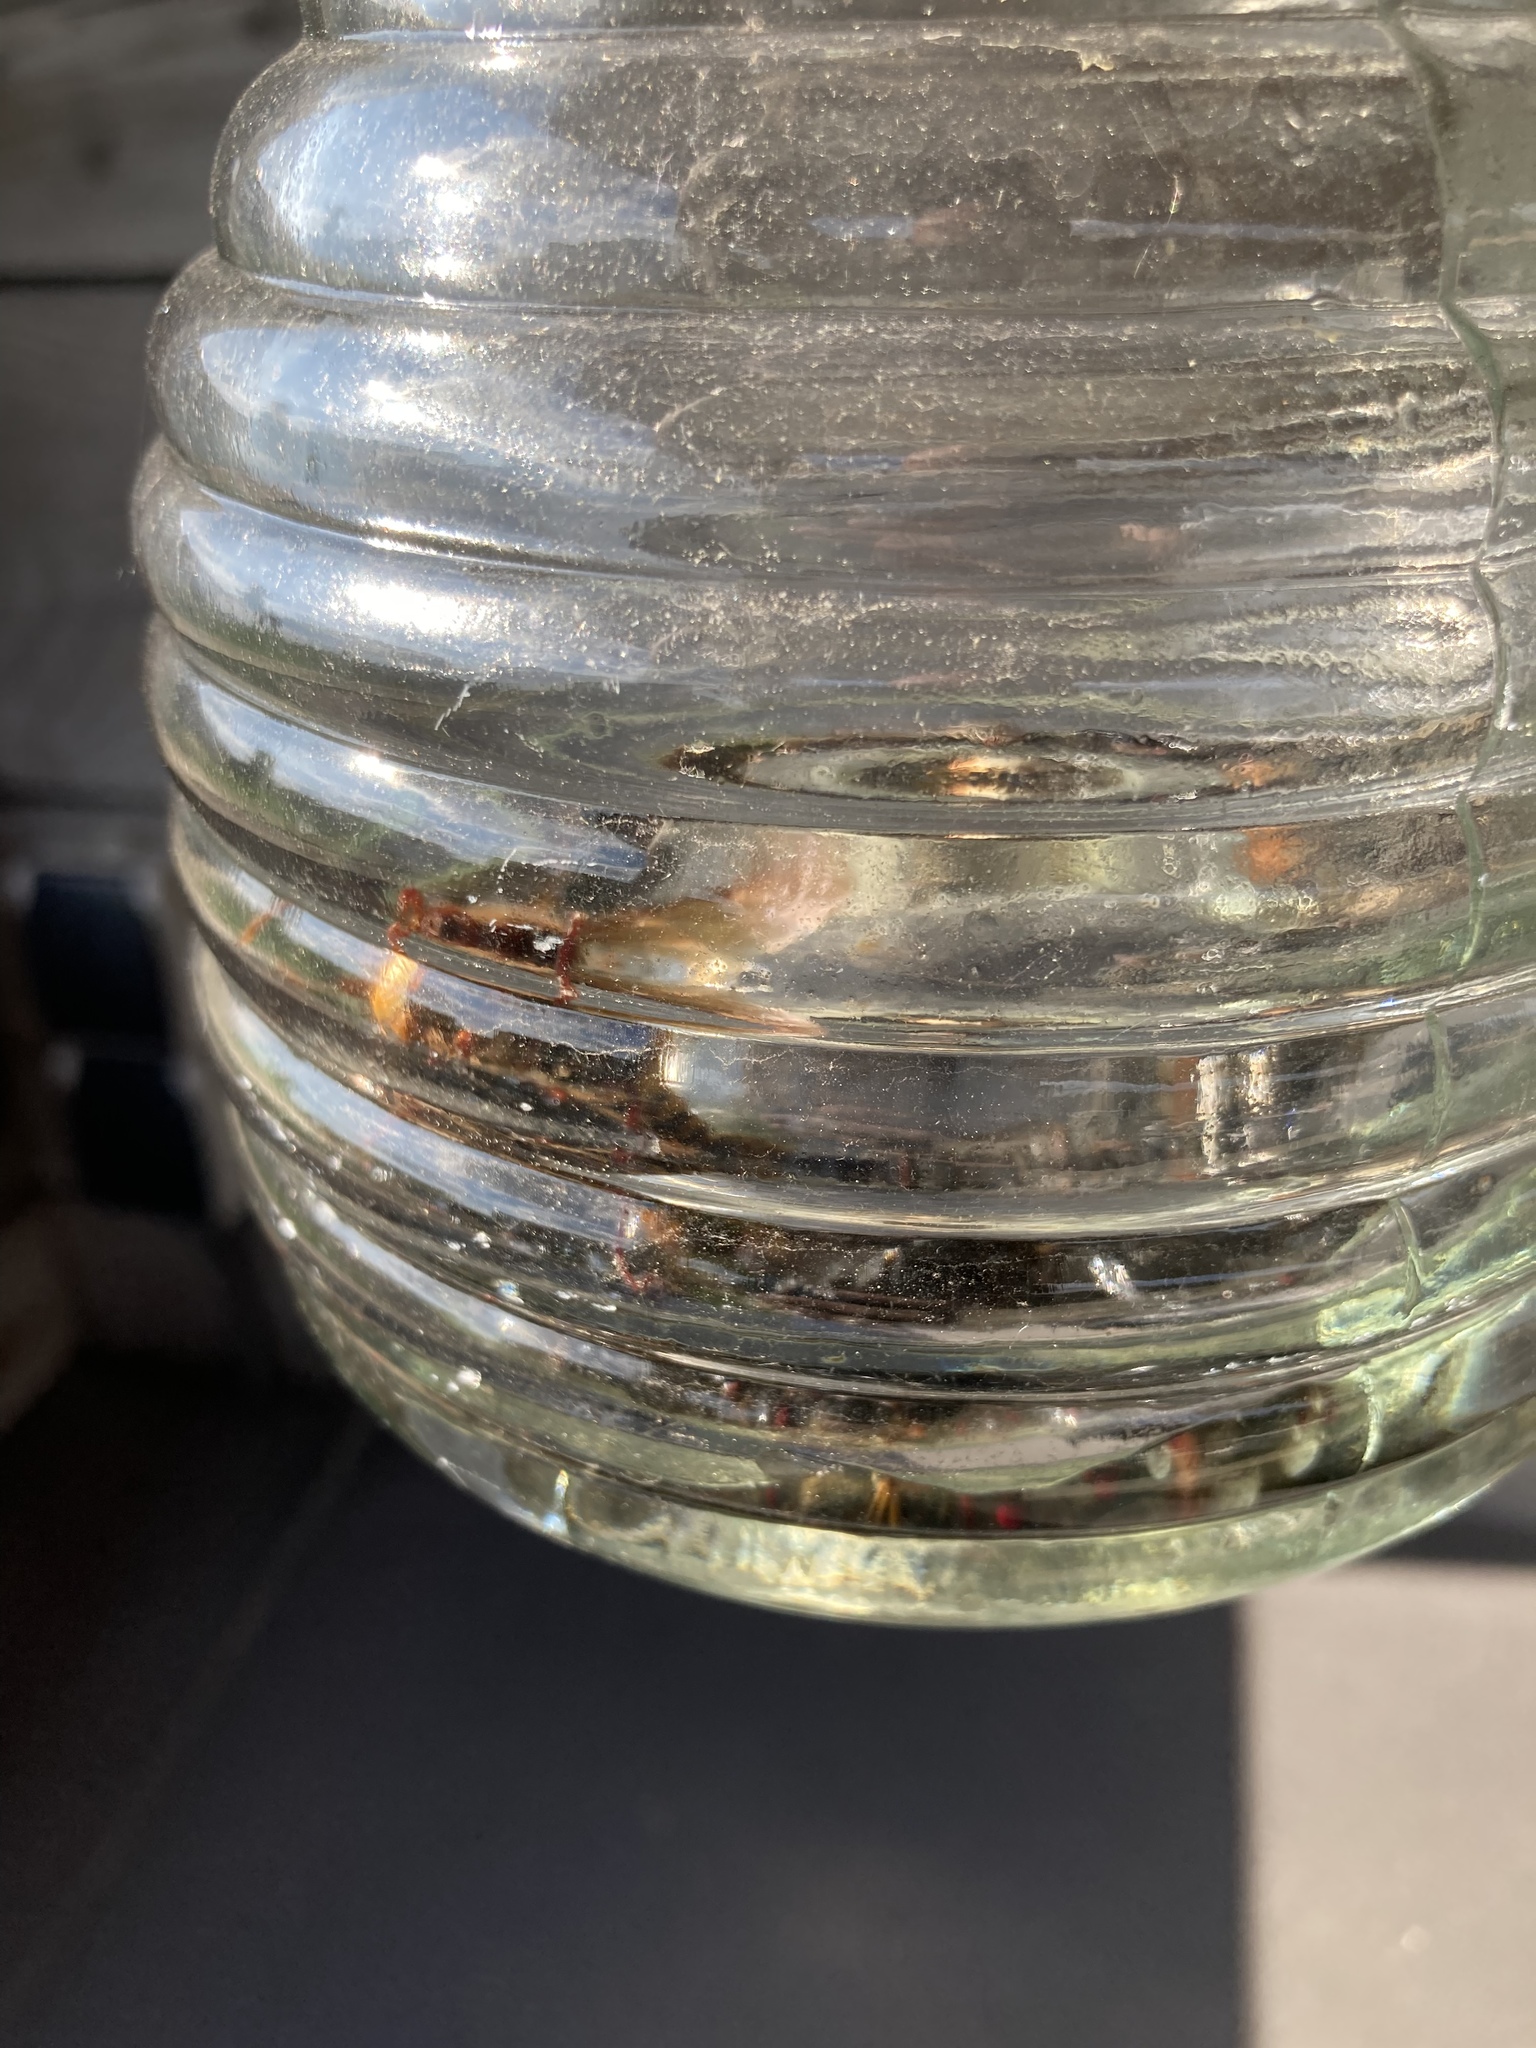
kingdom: Animalia
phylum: Arthropoda
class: Insecta
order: Hymenoptera
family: Vespidae
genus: Vespa
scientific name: Vespa crabro
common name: Hornet
